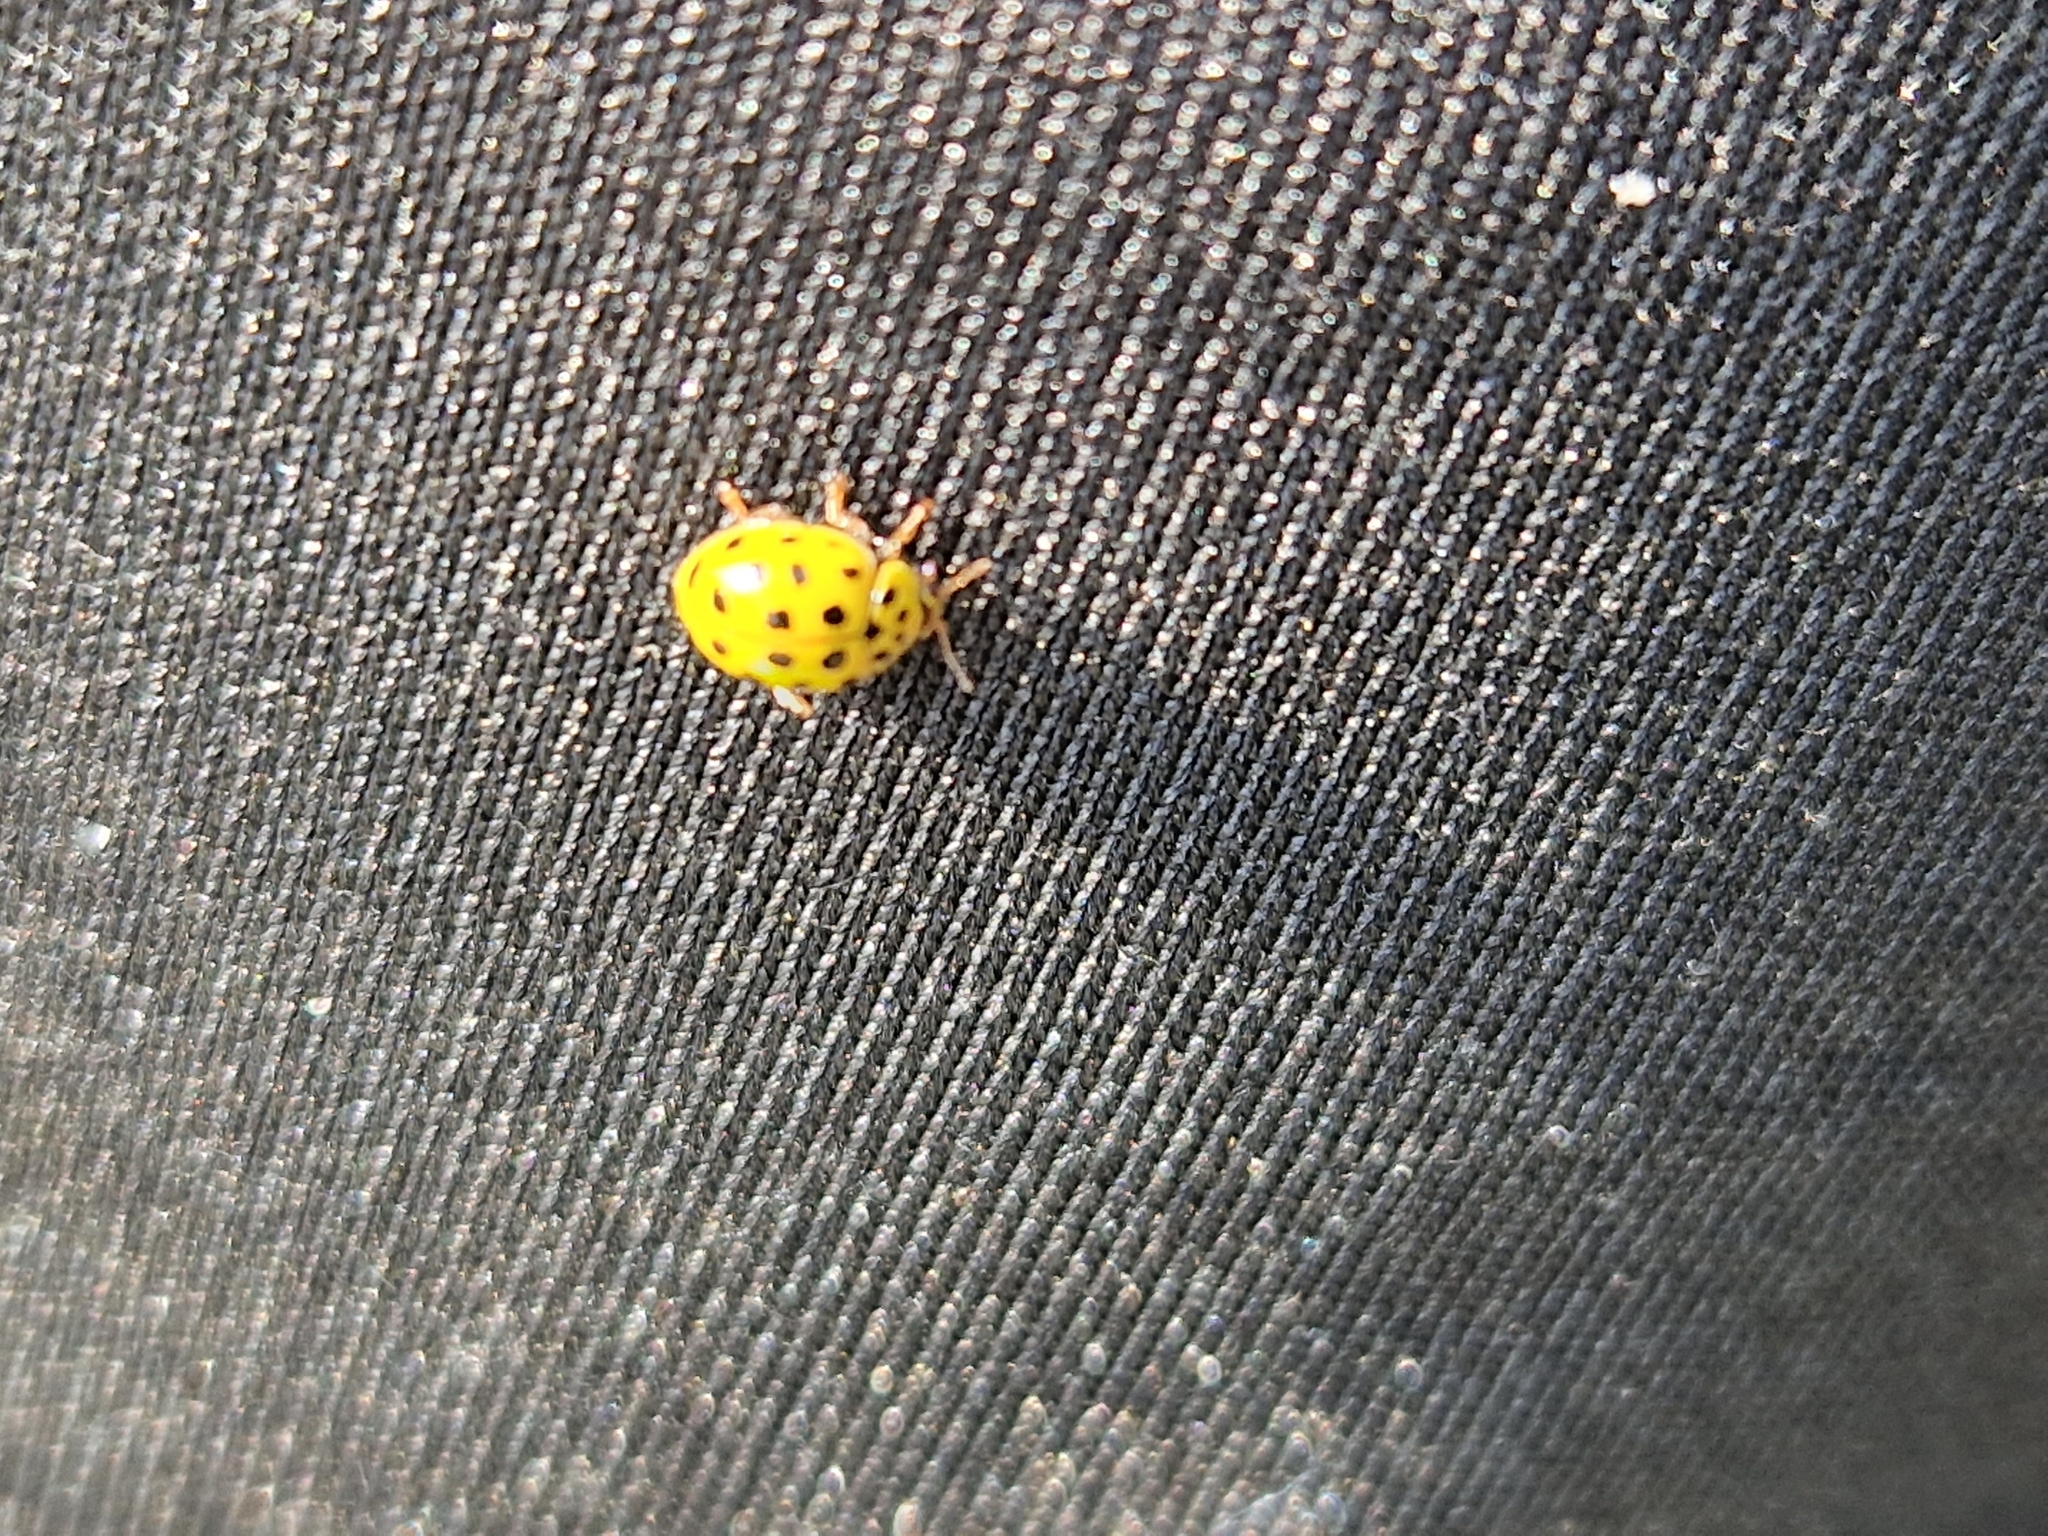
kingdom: Animalia
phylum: Arthropoda
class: Insecta
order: Coleoptera
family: Coccinellidae
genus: Psyllobora
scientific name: Psyllobora vigintiduopunctata
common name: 22-spot ladybird
